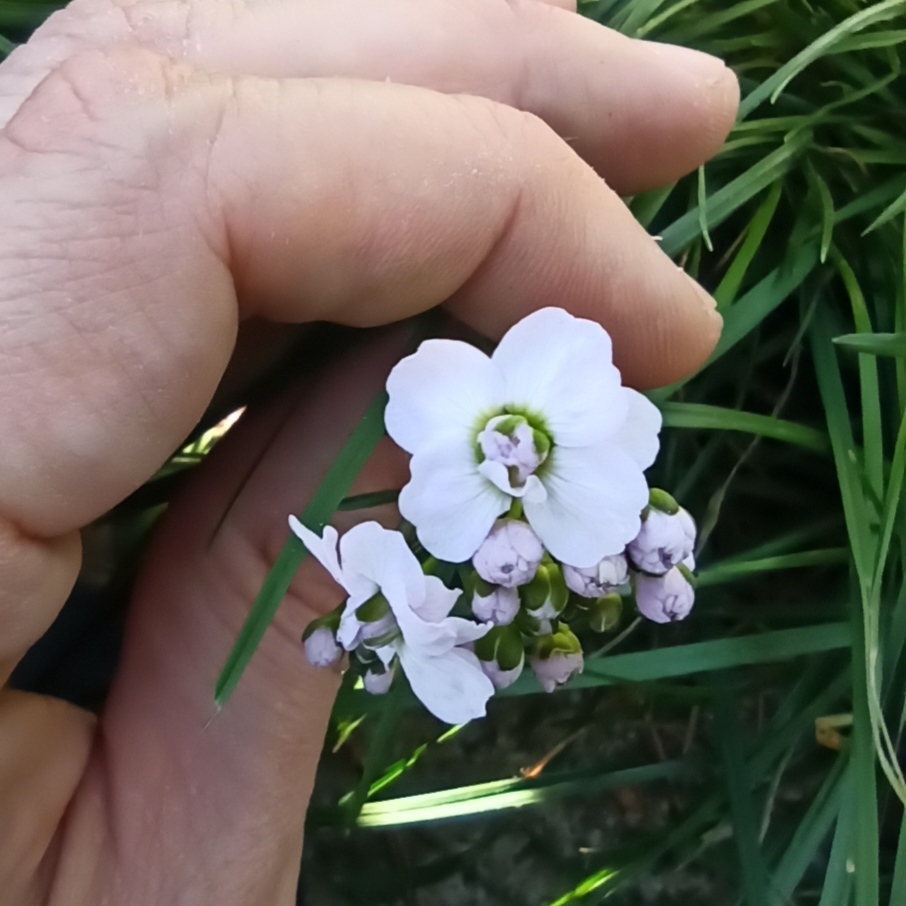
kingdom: Plantae
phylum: Tracheophyta
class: Magnoliopsida
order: Brassicales
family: Brassicaceae
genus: Cardamine
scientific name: Cardamine pratensis
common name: Cuckoo flower
